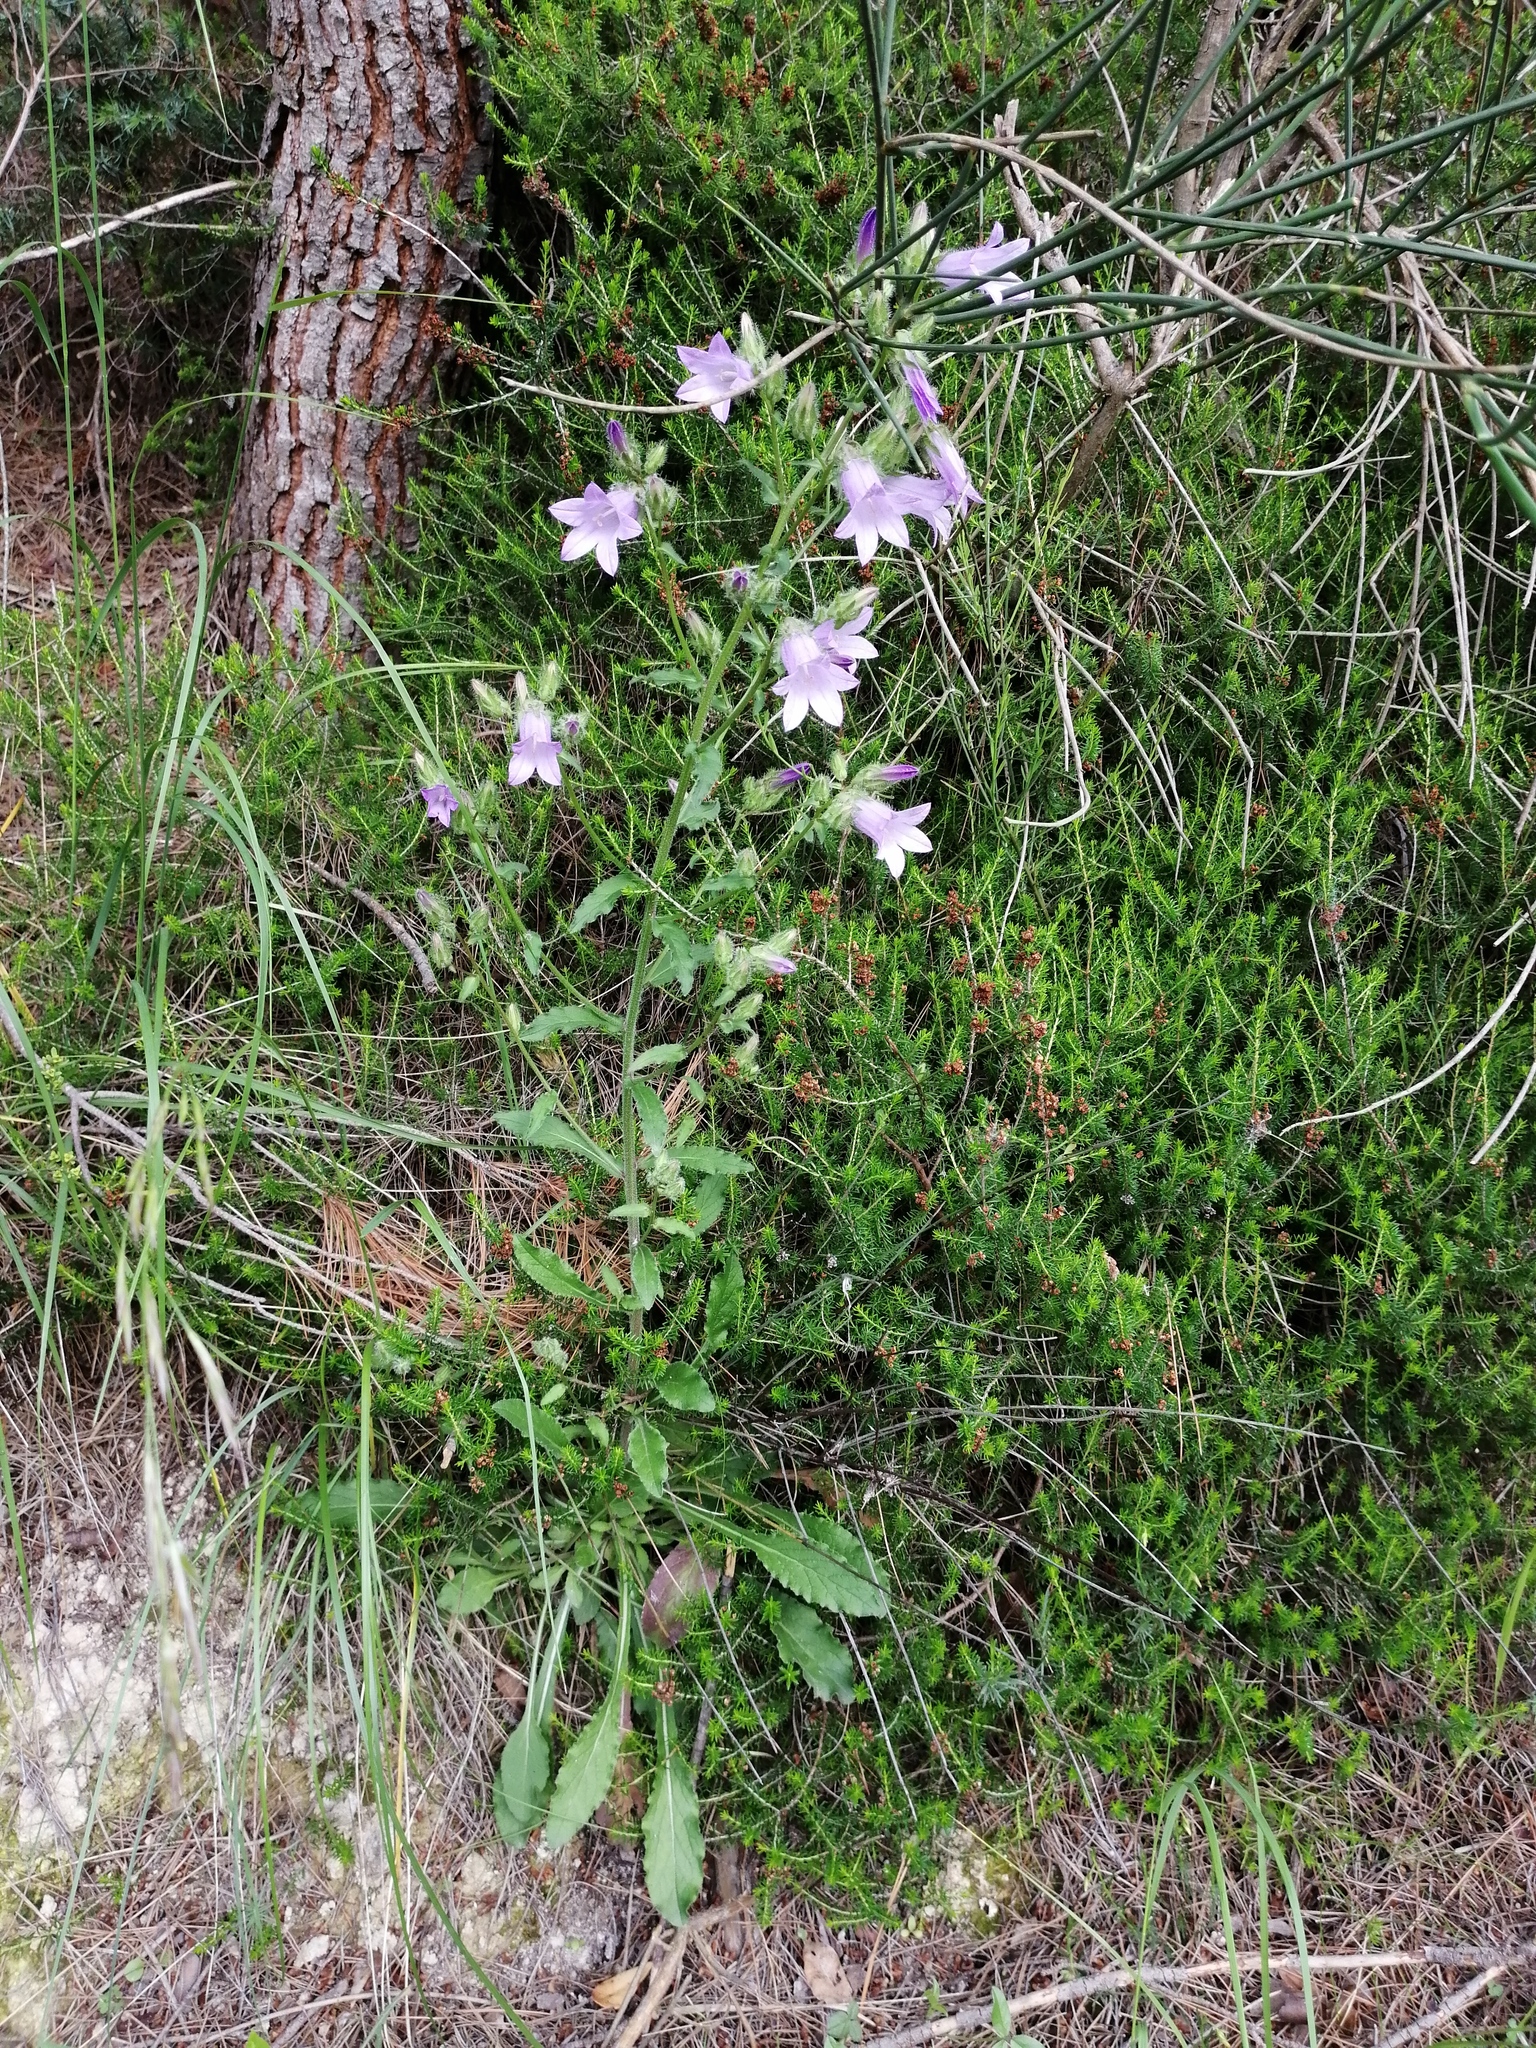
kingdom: Plantae
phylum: Tracheophyta
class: Magnoliopsida
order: Asterales
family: Campanulaceae
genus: Campanula
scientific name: Campanula sibirica
